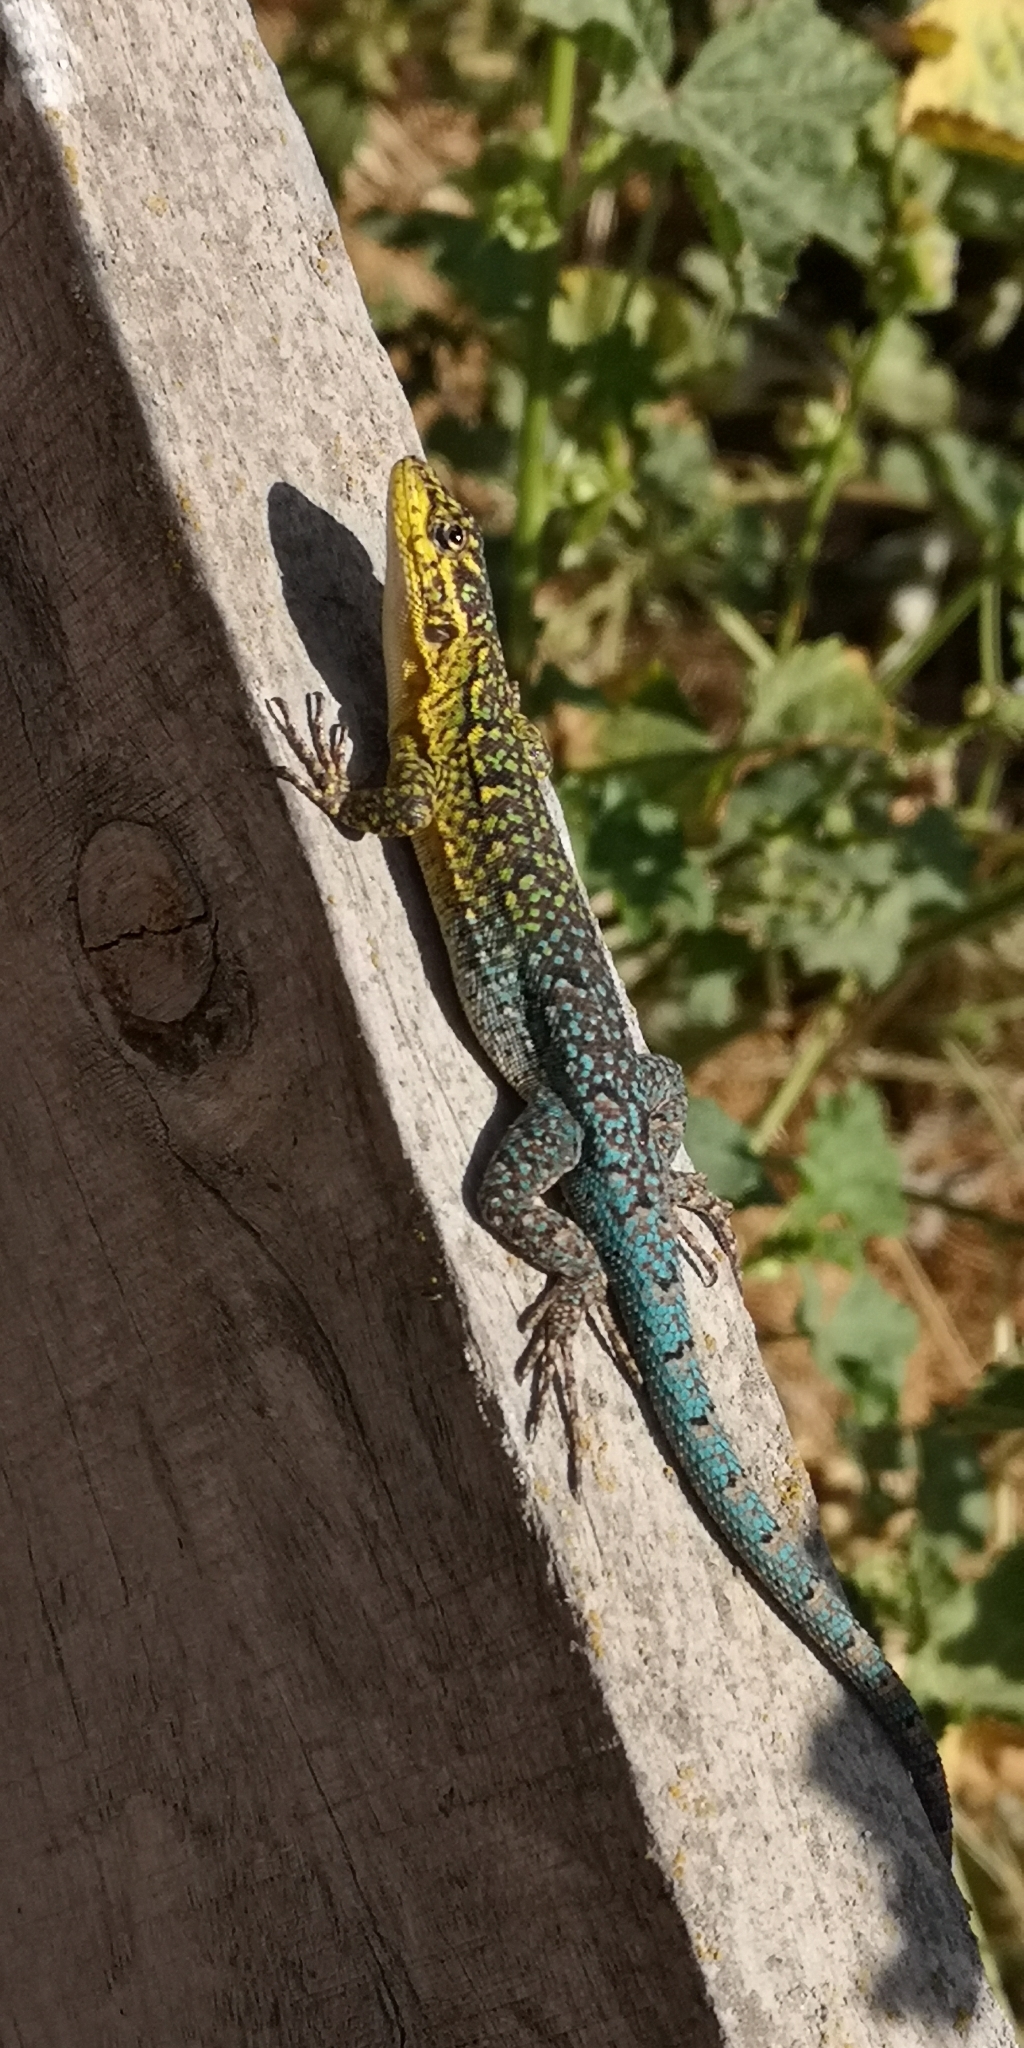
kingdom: Animalia
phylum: Chordata
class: Squamata
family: Liolaemidae
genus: Liolaemus
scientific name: Liolaemus tenuis
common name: Thin tree iguana
